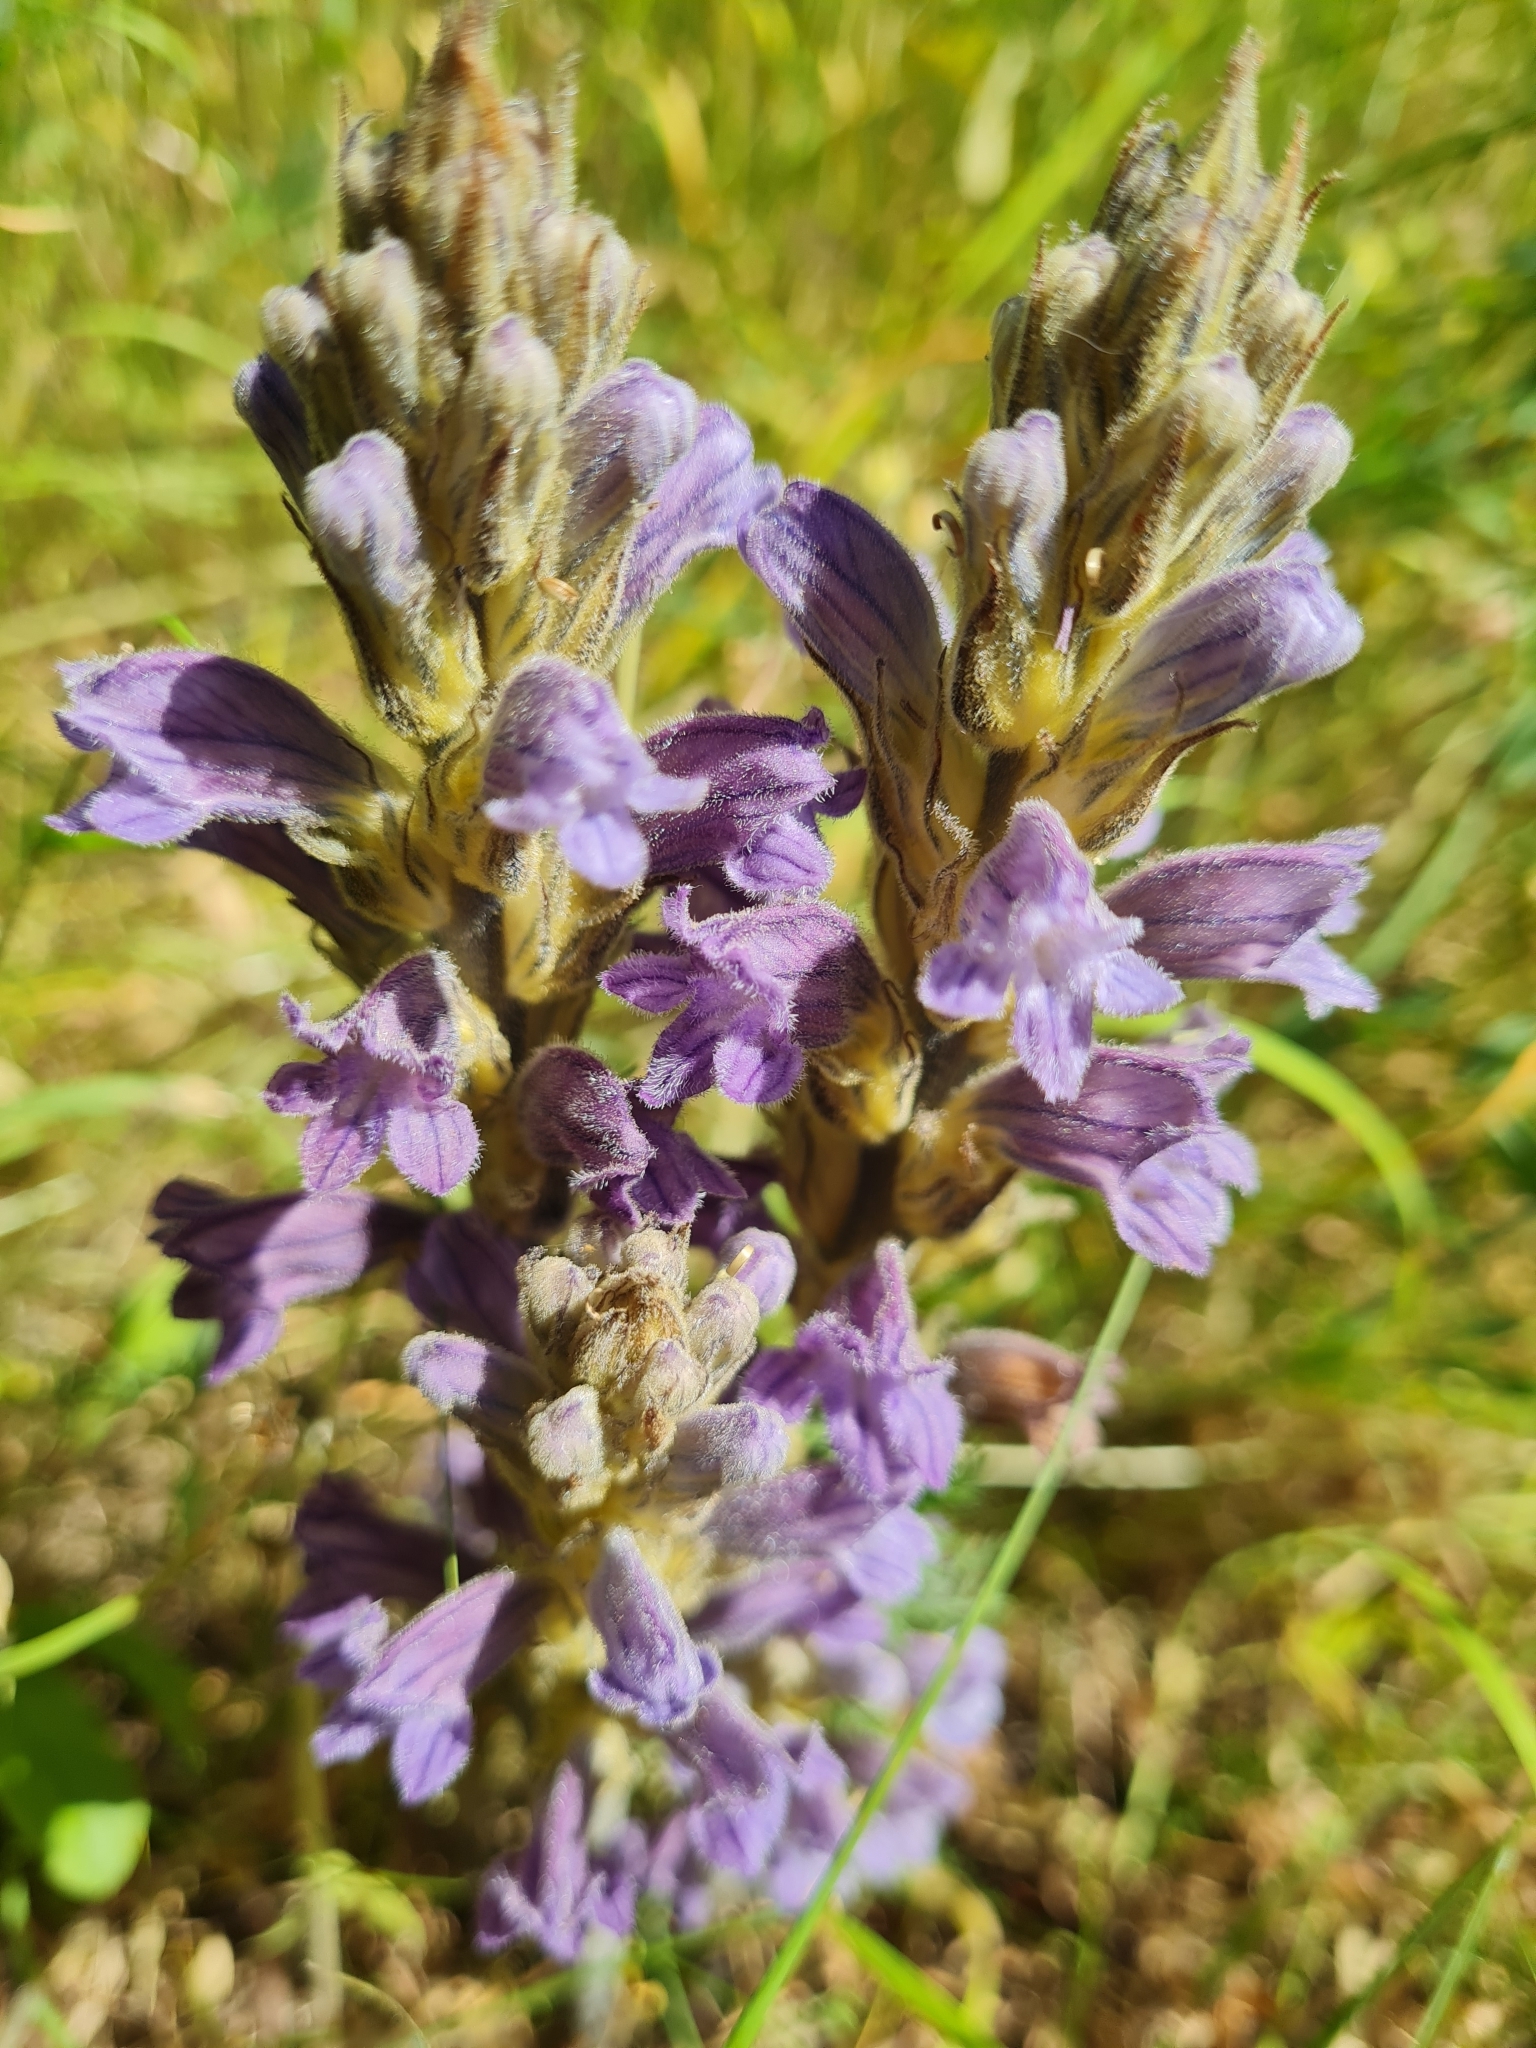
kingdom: Plantae
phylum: Tracheophyta
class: Magnoliopsida
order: Lamiales
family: Orobanchaceae
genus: Phelipanche
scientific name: Phelipanche purpurea
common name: Purple broomrape
